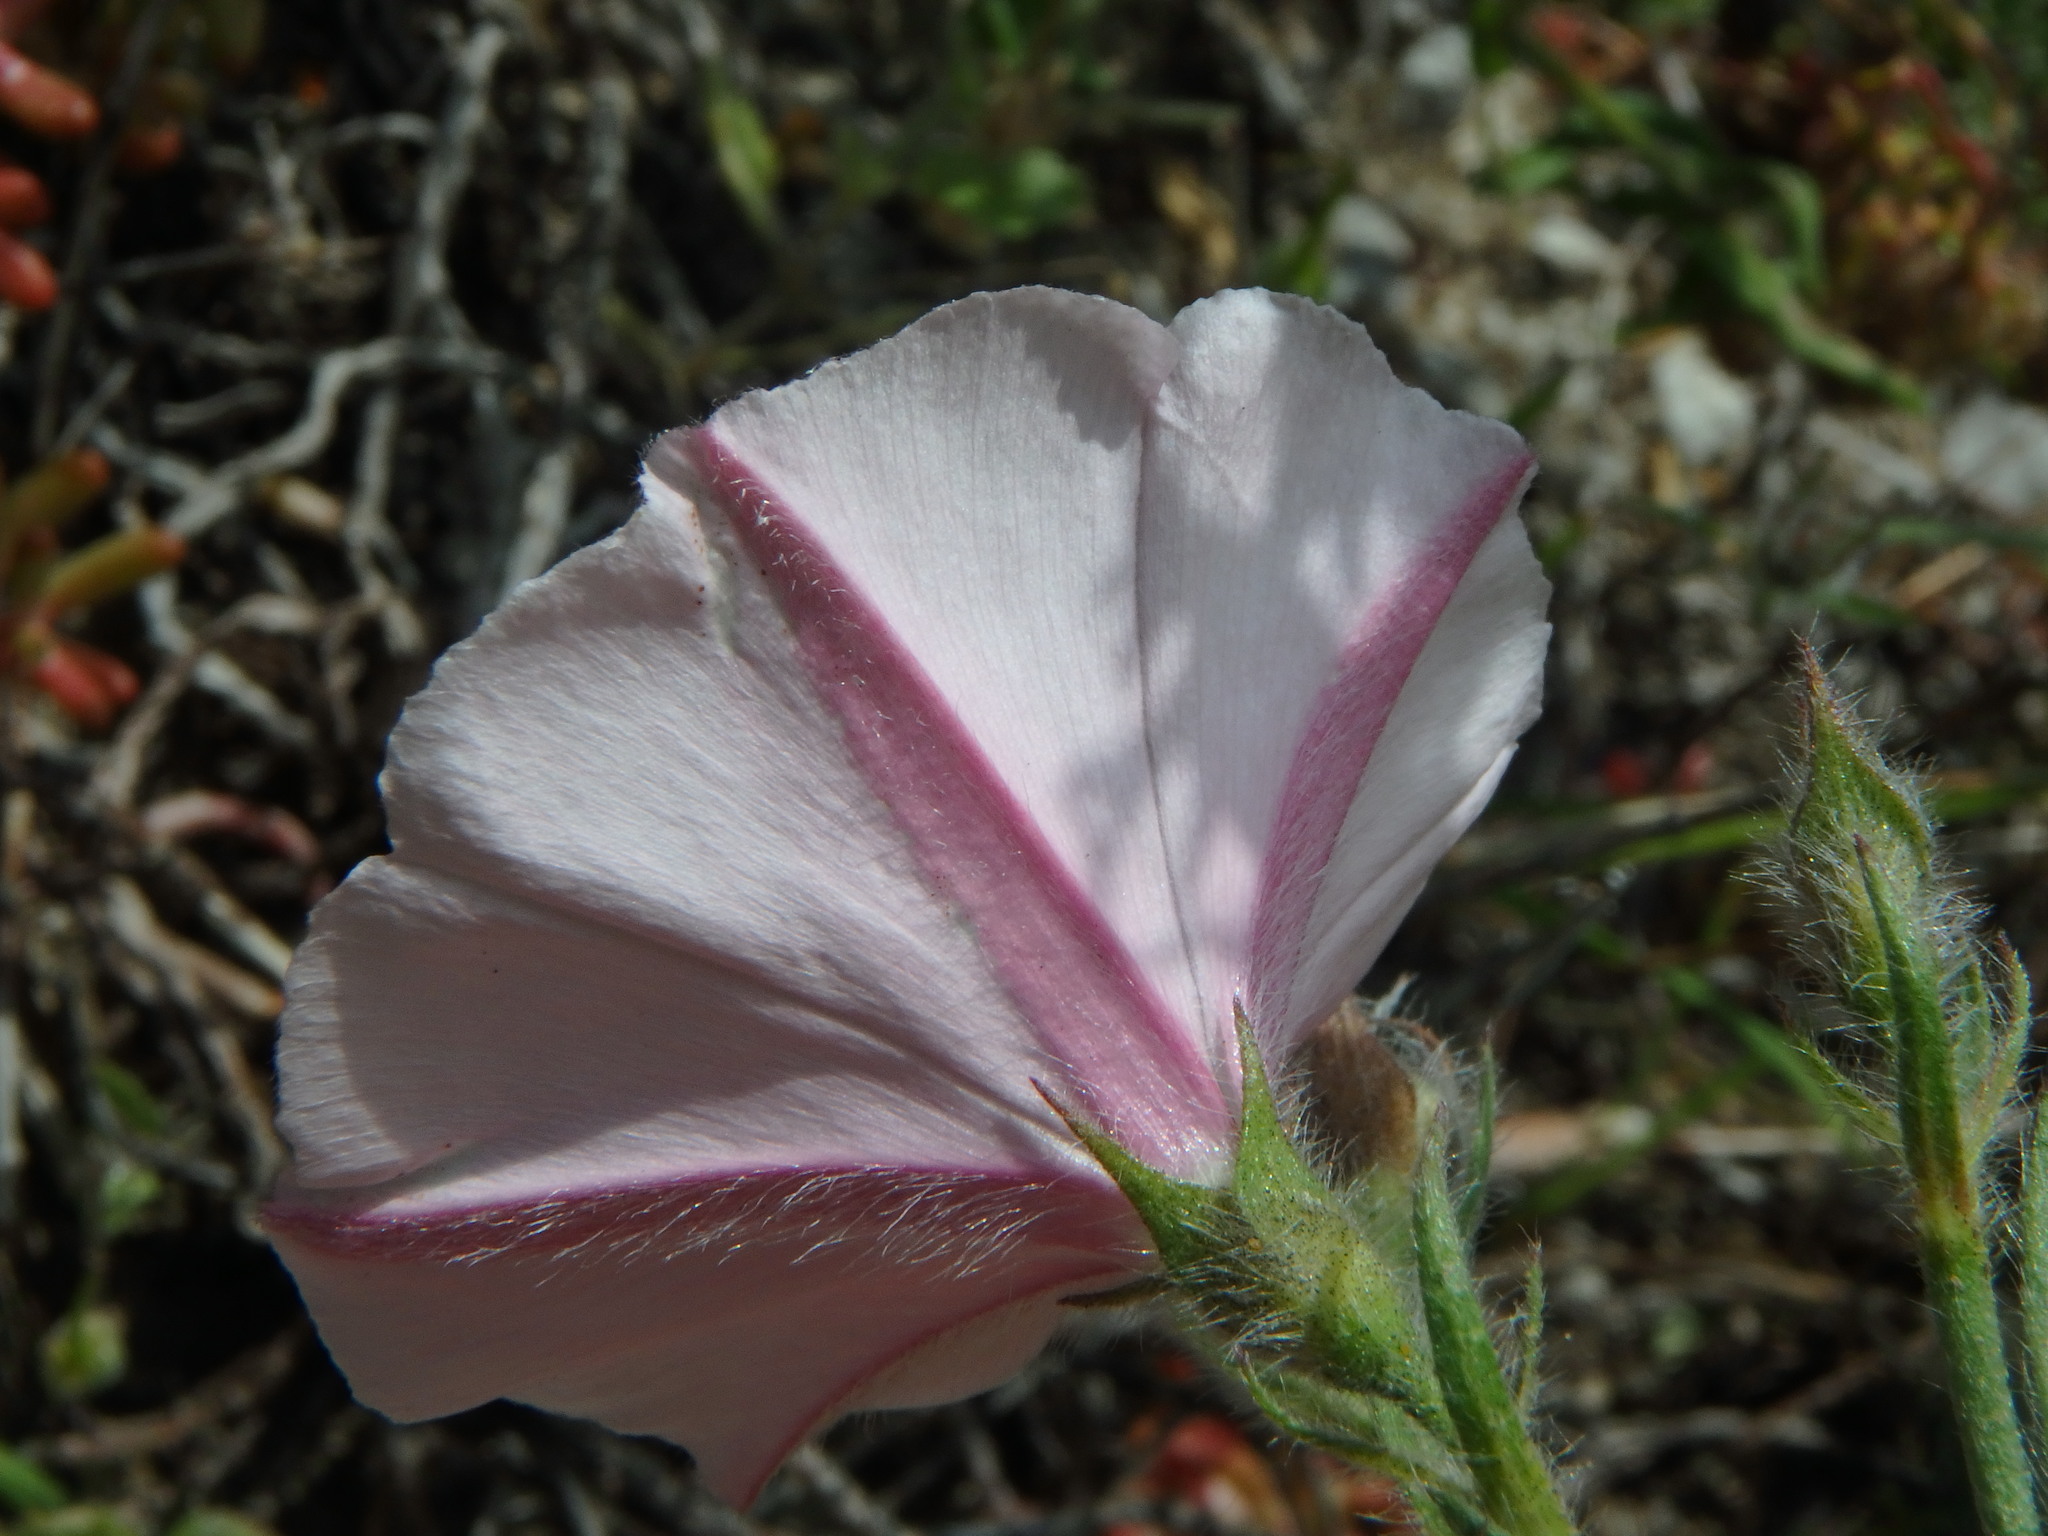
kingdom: Plantae
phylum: Tracheophyta
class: Magnoliopsida
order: Solanales
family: Convolvulaceae
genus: Convolvulus
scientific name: Convolvulus cantabrica
